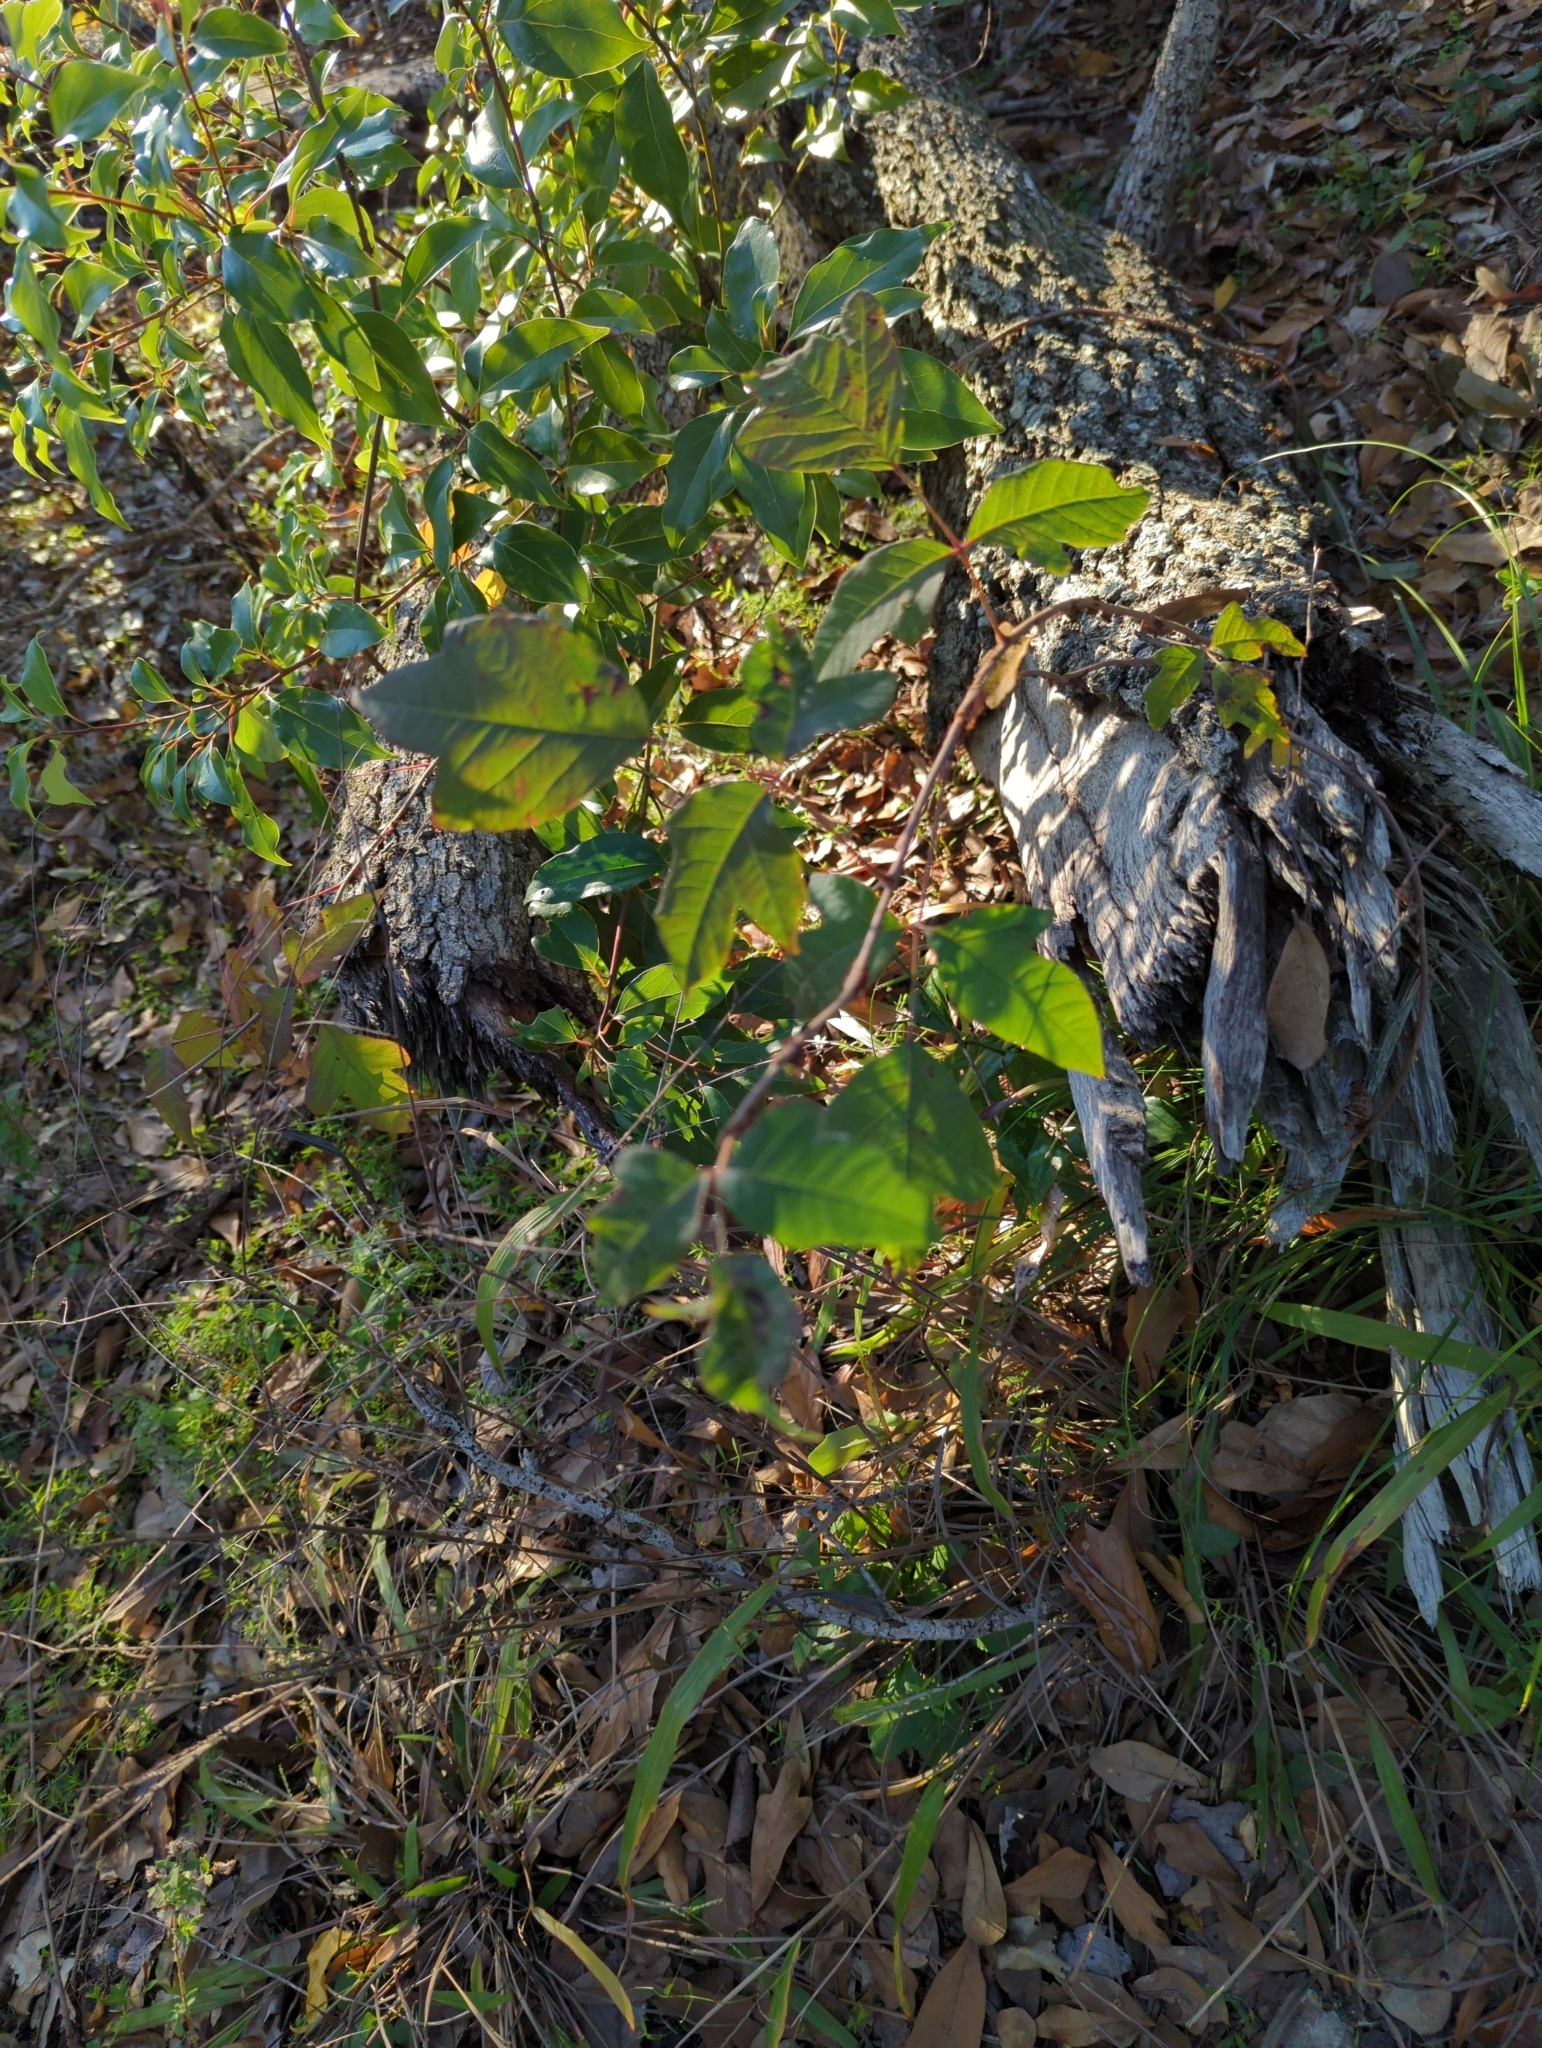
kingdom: Plantae
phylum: Tracheophyta
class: Magnoliopsida
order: Sapindales
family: Anacardiaceae
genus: Toxicodendron
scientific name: Toxicodendron radicans
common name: Poison ivy
